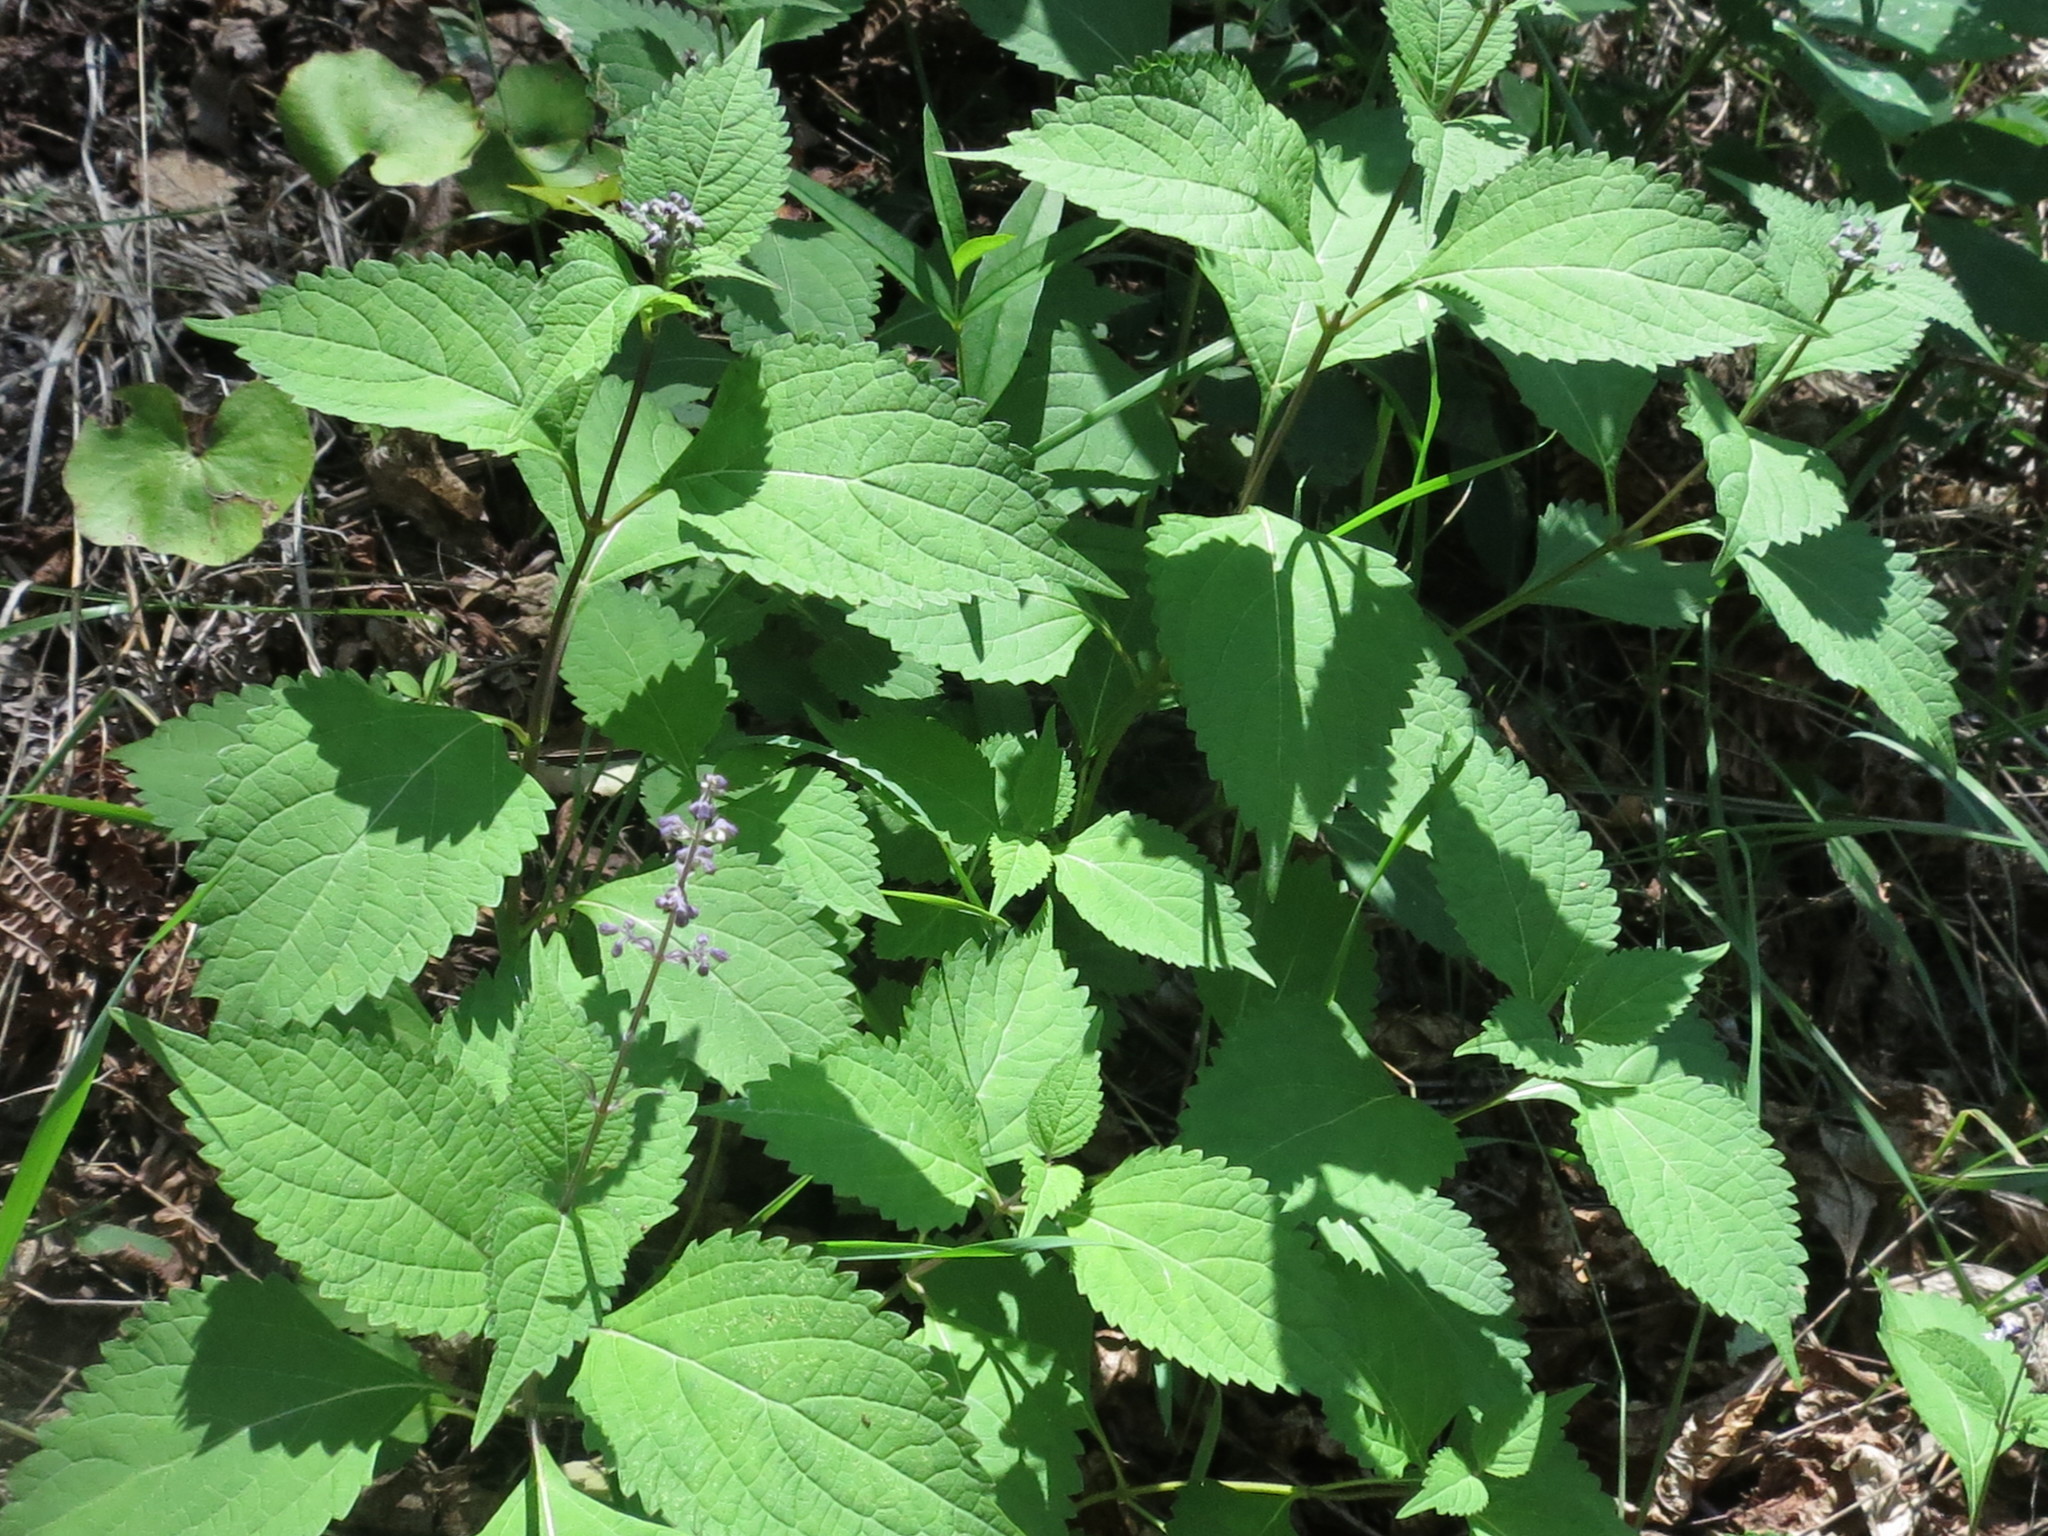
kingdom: Plantae
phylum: Tracheophyta
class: Magnoliopsida
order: Lamiales
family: Lamiaceae
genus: Isodon
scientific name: Isodon japonicus
